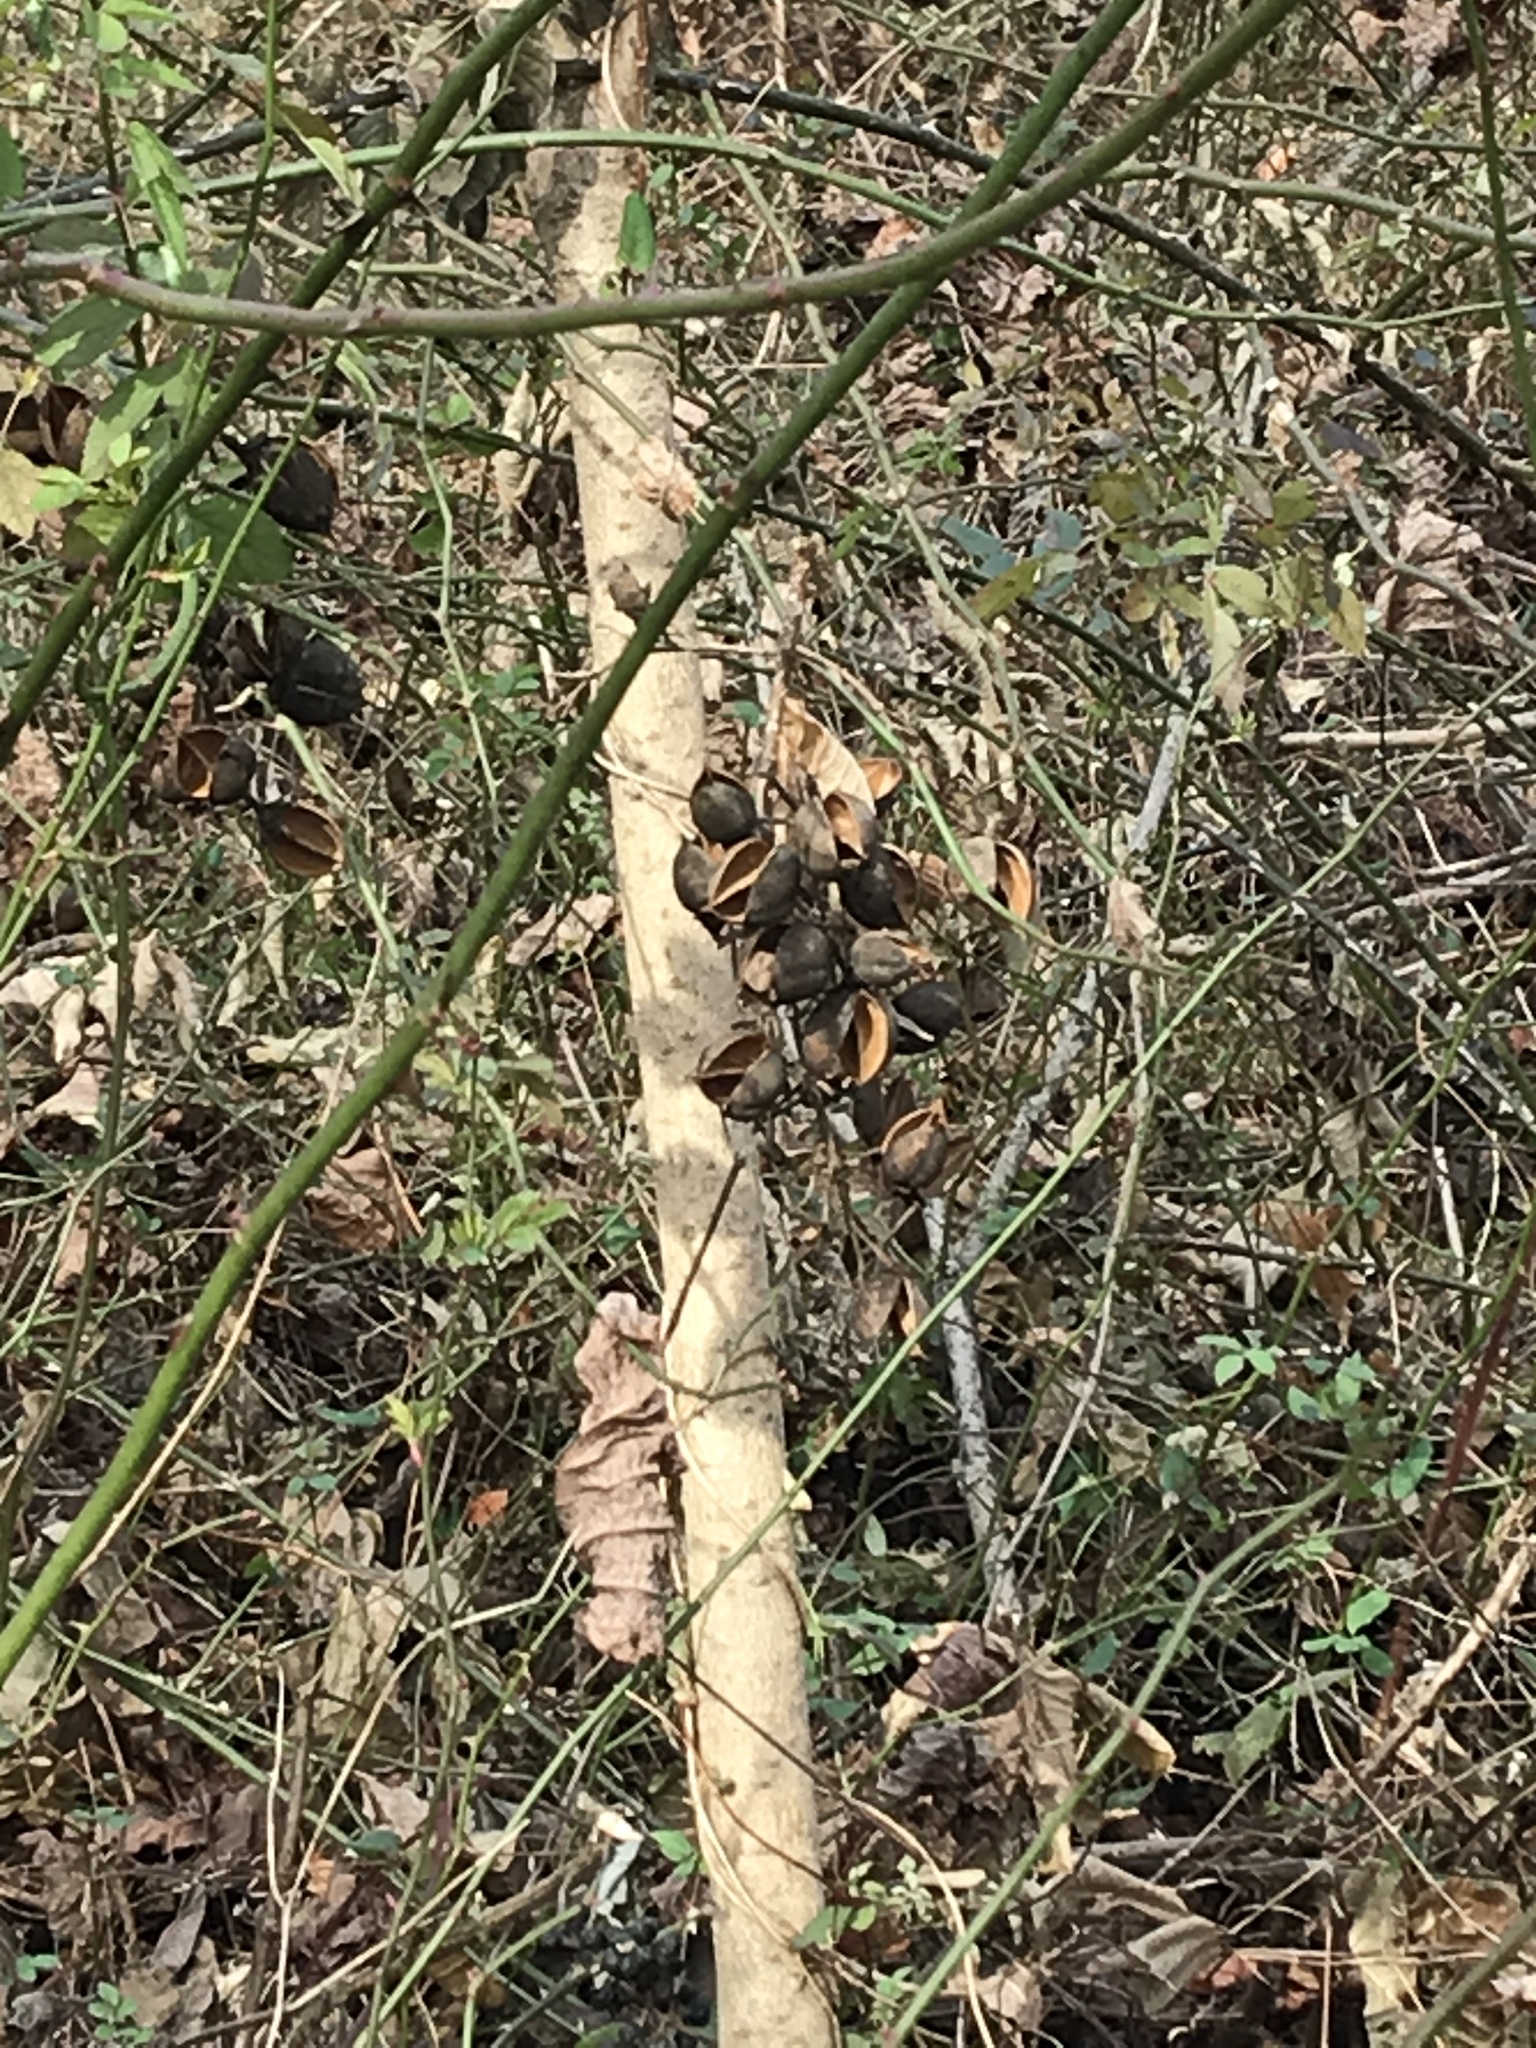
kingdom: Plantae
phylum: Tracheophyta
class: Magnoliopsida
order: Lamiales
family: Paulowniaceae
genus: Paulownia
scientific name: Paulownia tomentosa
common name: Foxglove-tree
